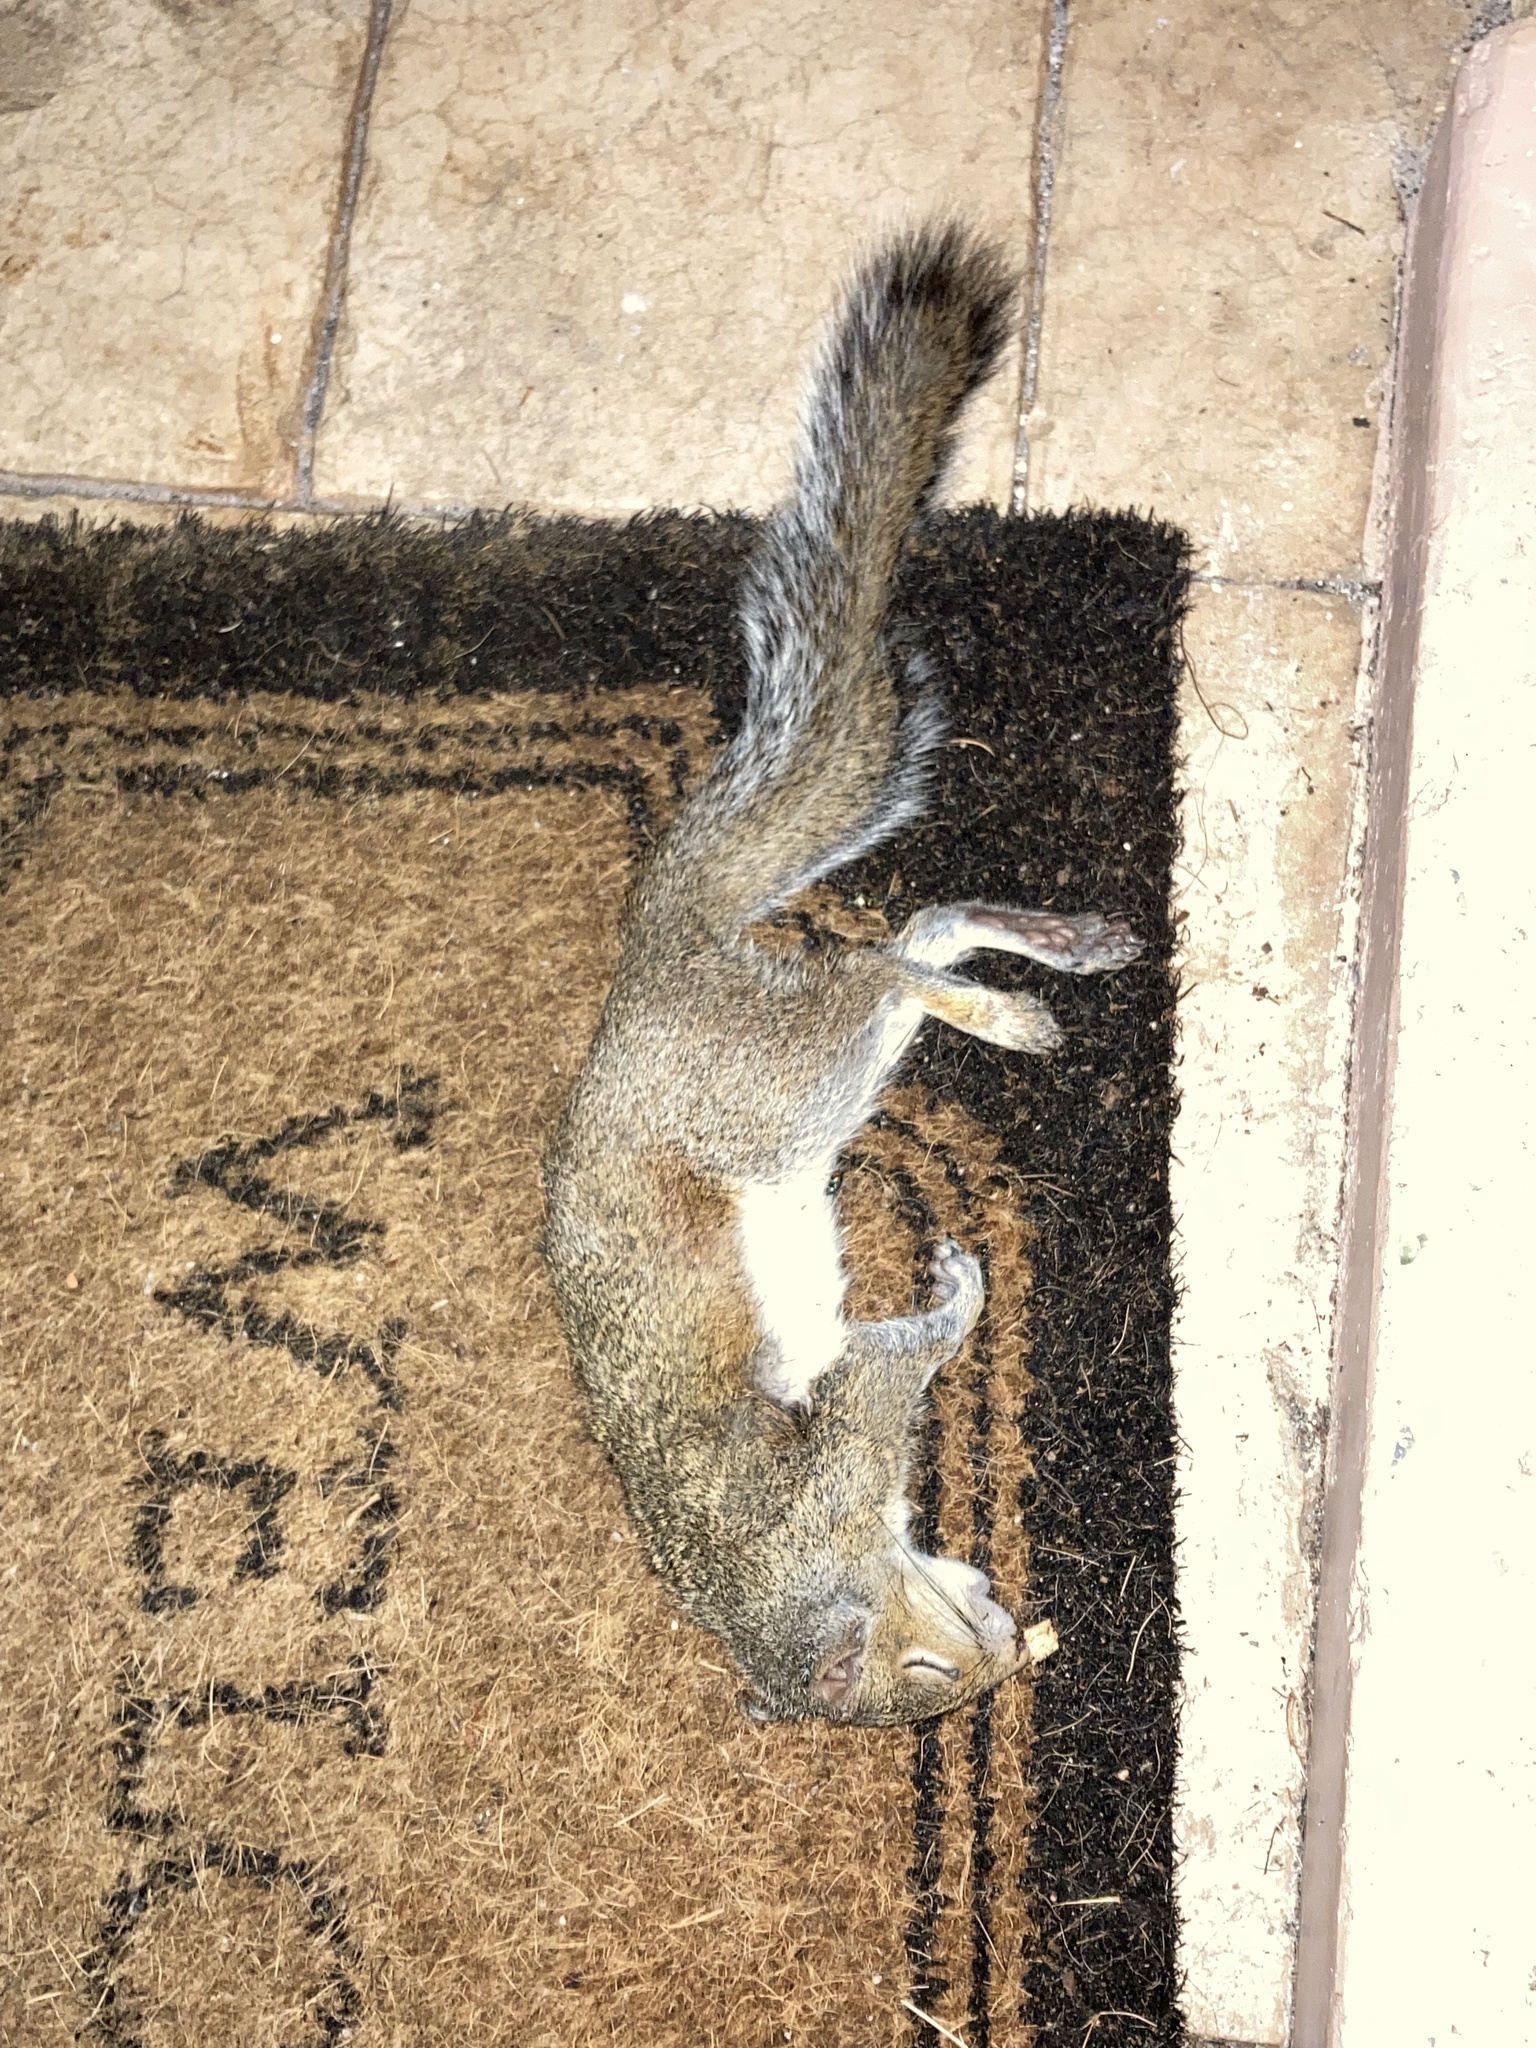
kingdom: Animalia
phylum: Chordata
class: Mammalia
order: Rodentia
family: Sciuridae
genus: Sciurus
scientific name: Sciurus carolinensis
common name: Eastern gray squirrel
